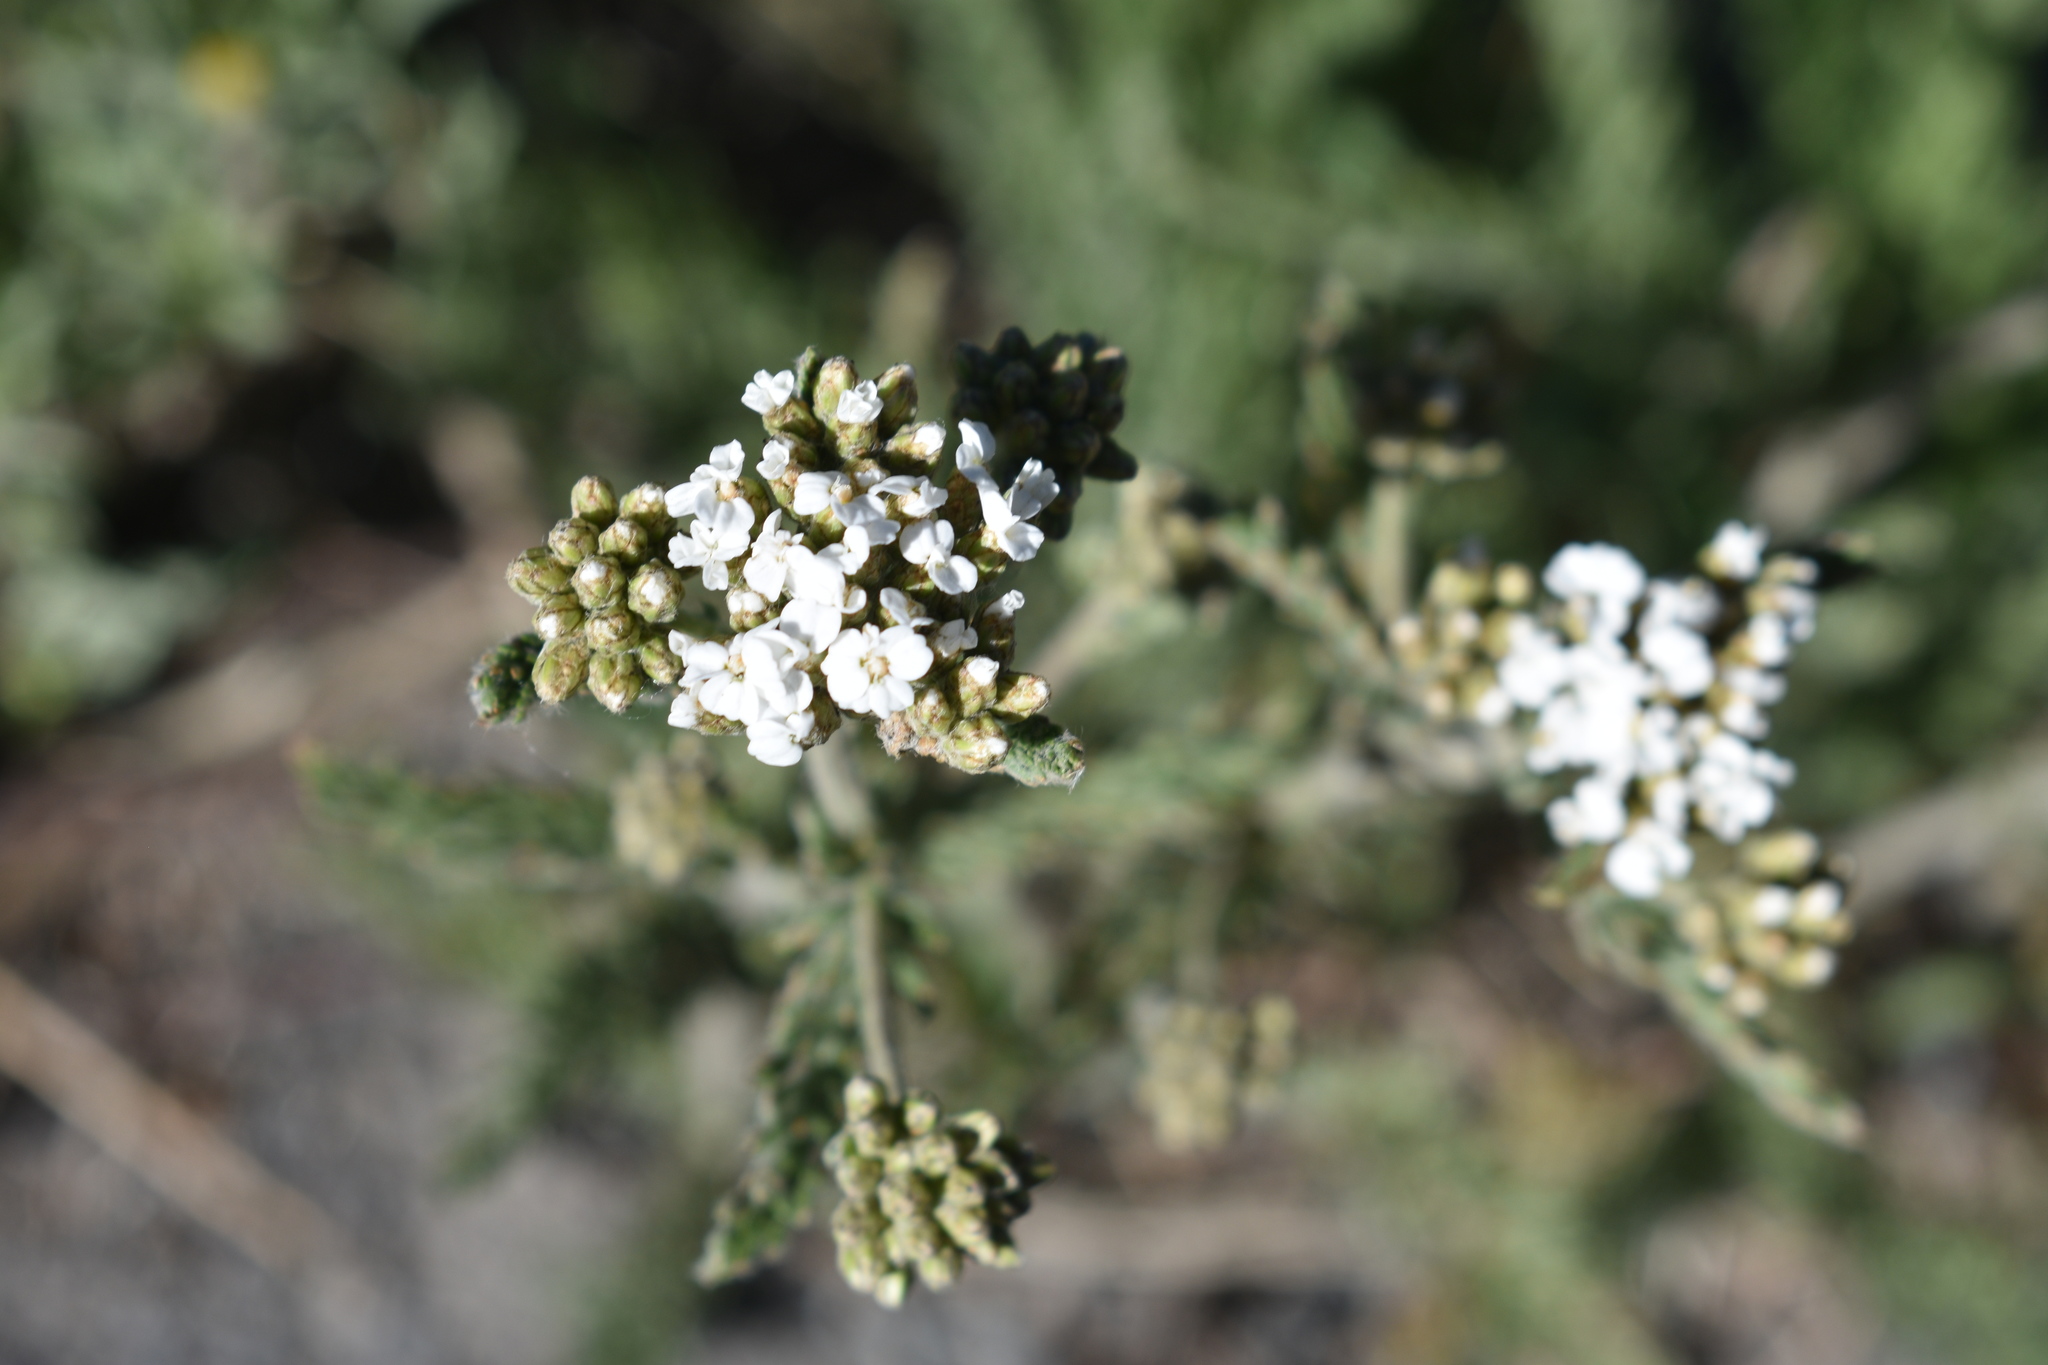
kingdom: Plantae
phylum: Tracheophyta
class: Magnoliopsida
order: Asterales
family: Asteraceae
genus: Achillea
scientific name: Achillea millefolium
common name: Yarrow
